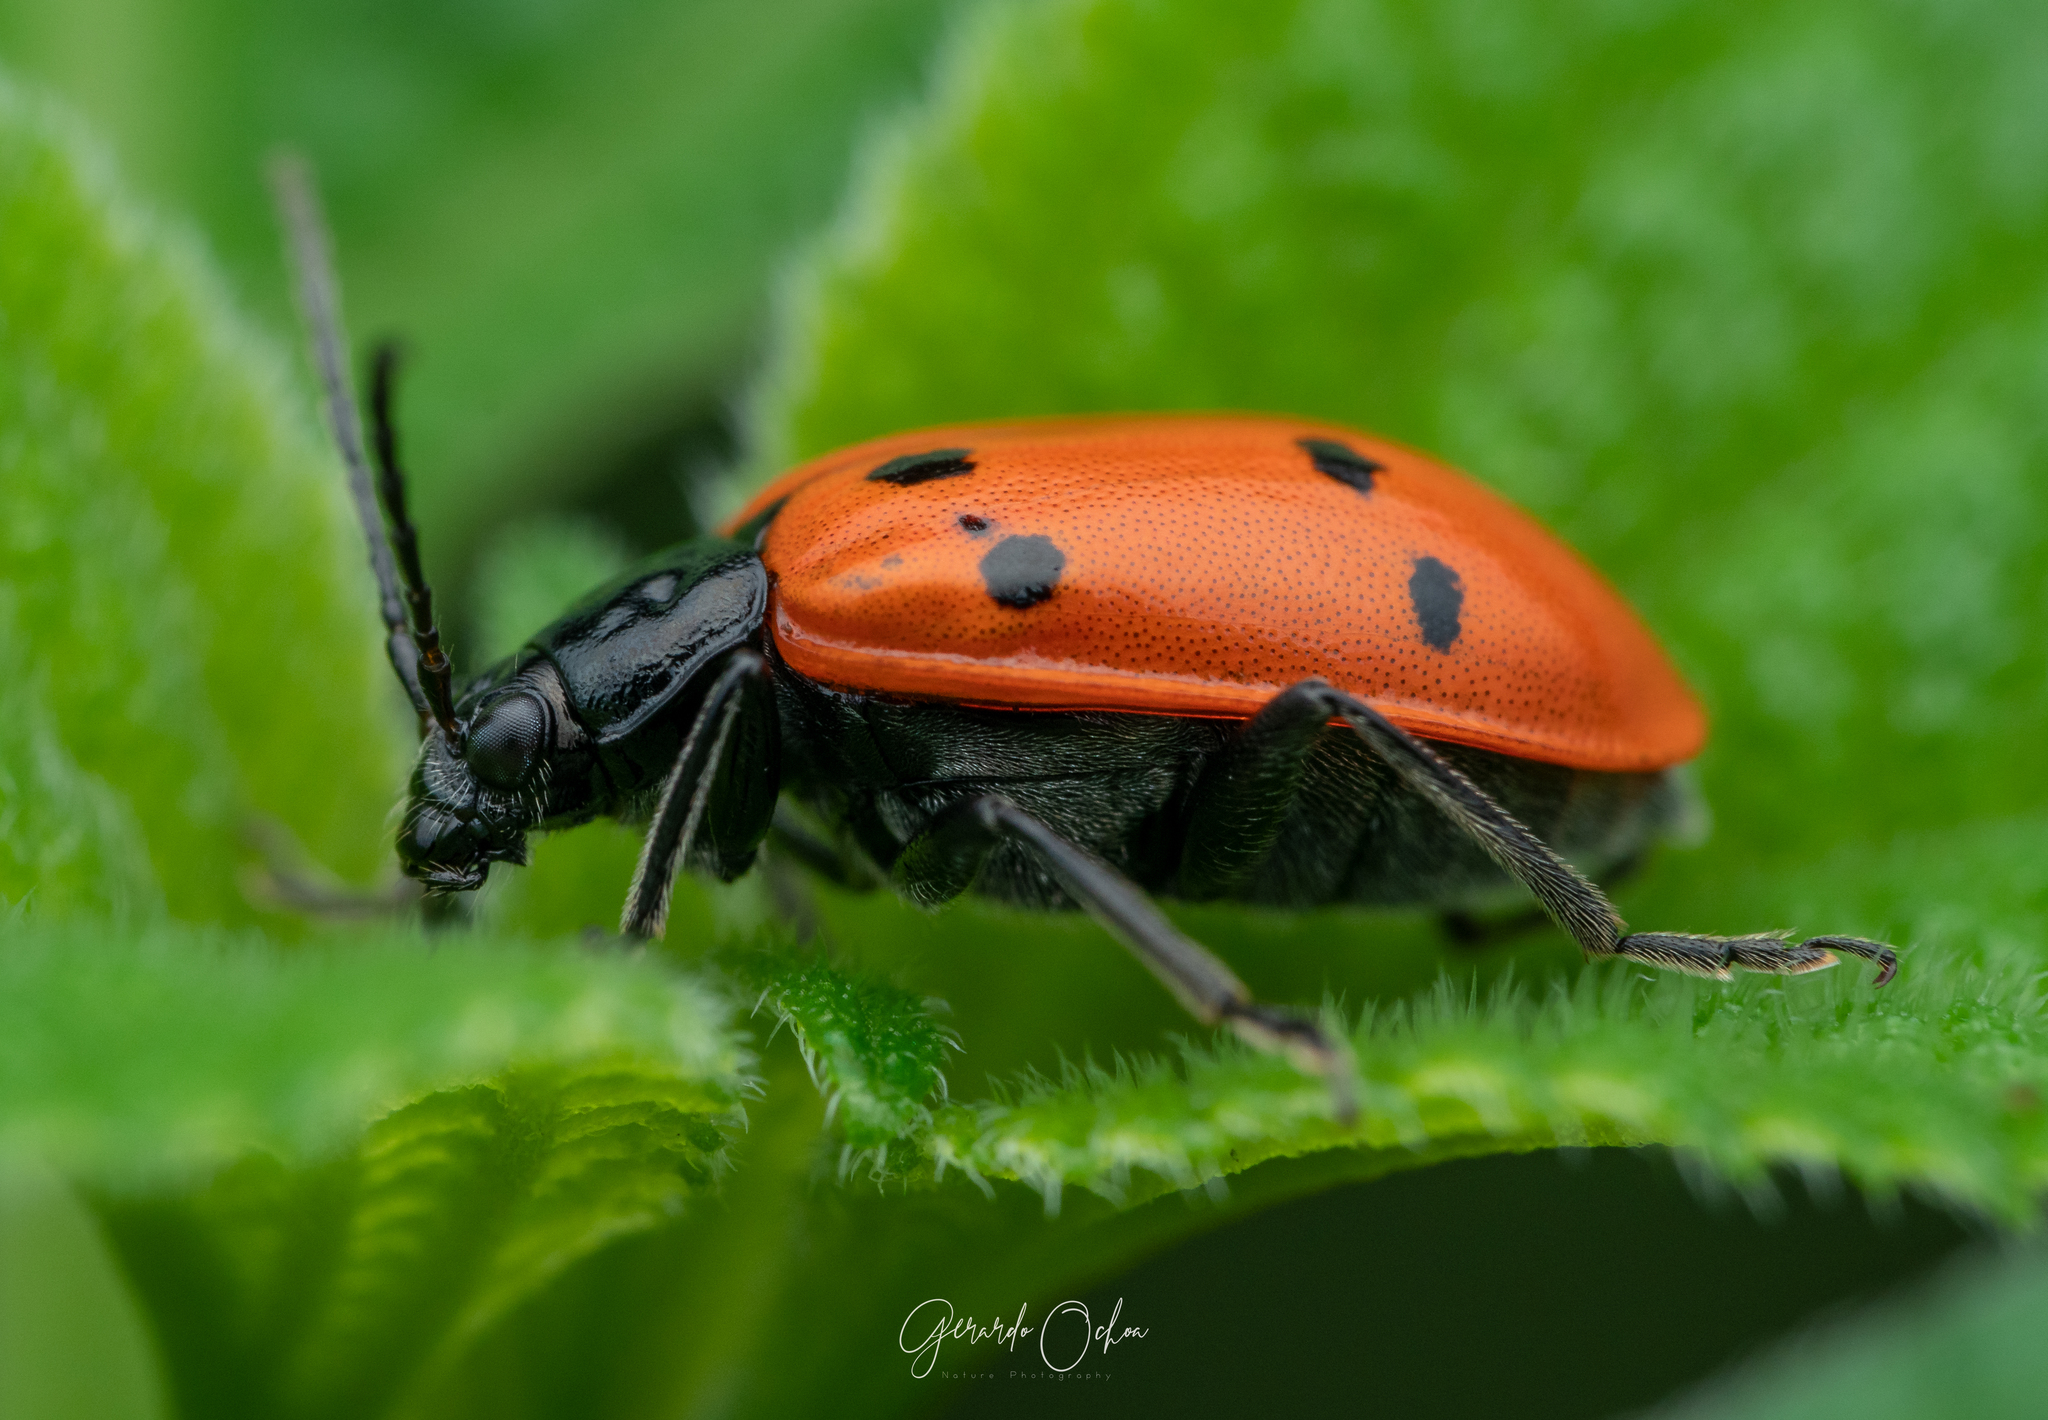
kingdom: Animalia
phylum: Arthropoda
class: Insecta
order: Coleoptera
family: Chrysomelidae
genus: Isotes
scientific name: Isotes
